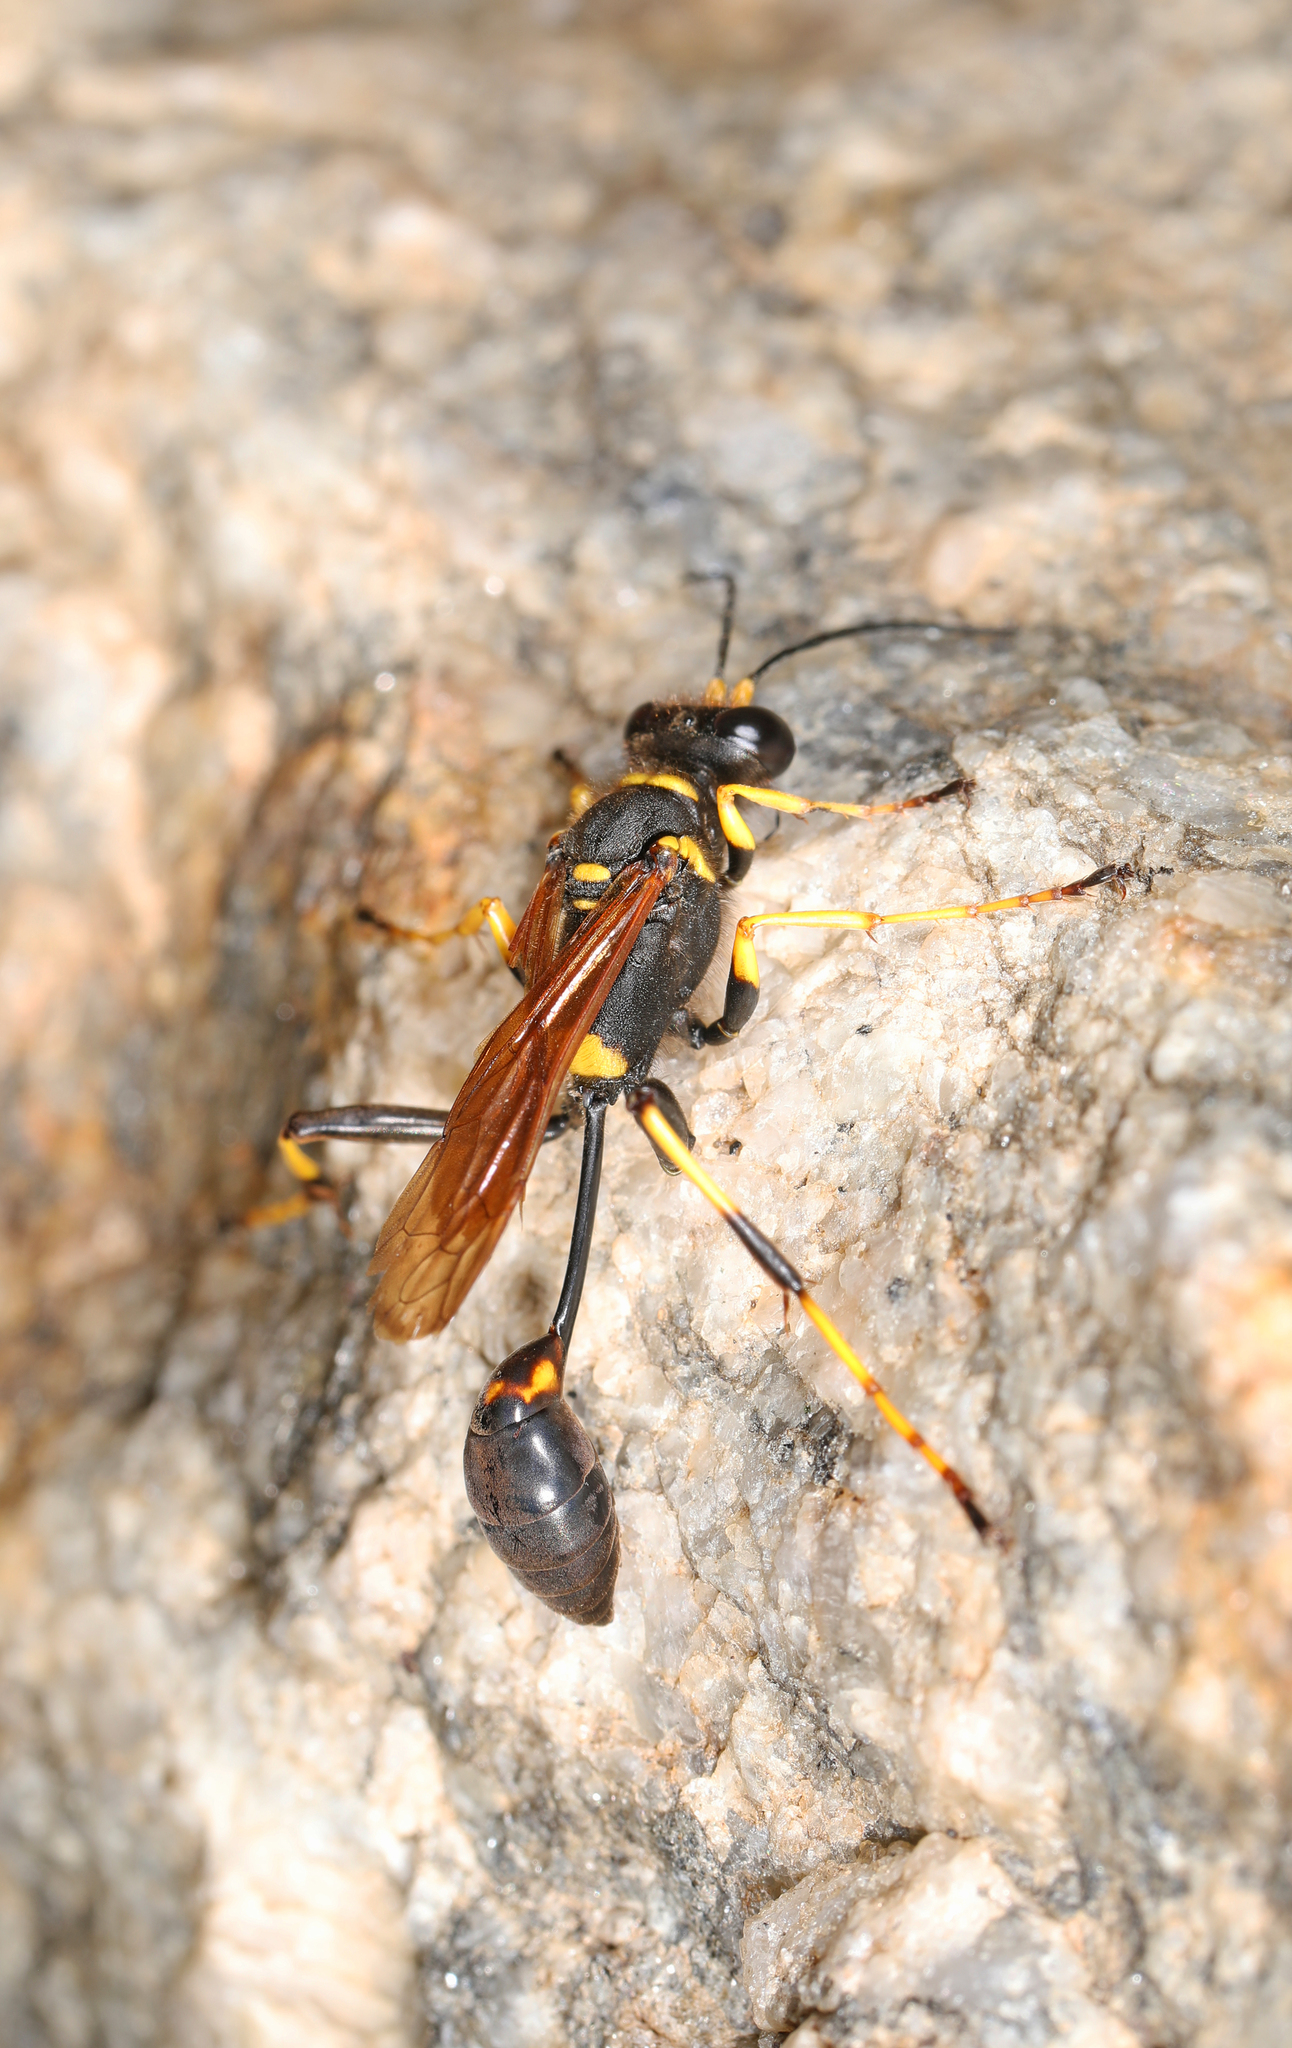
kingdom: Animalia
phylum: Arthropoda
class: Insecta
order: Hymenoptera
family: Sphecidae
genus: Sceliphron
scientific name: Sceliphron caementarium
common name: Mud dauber
